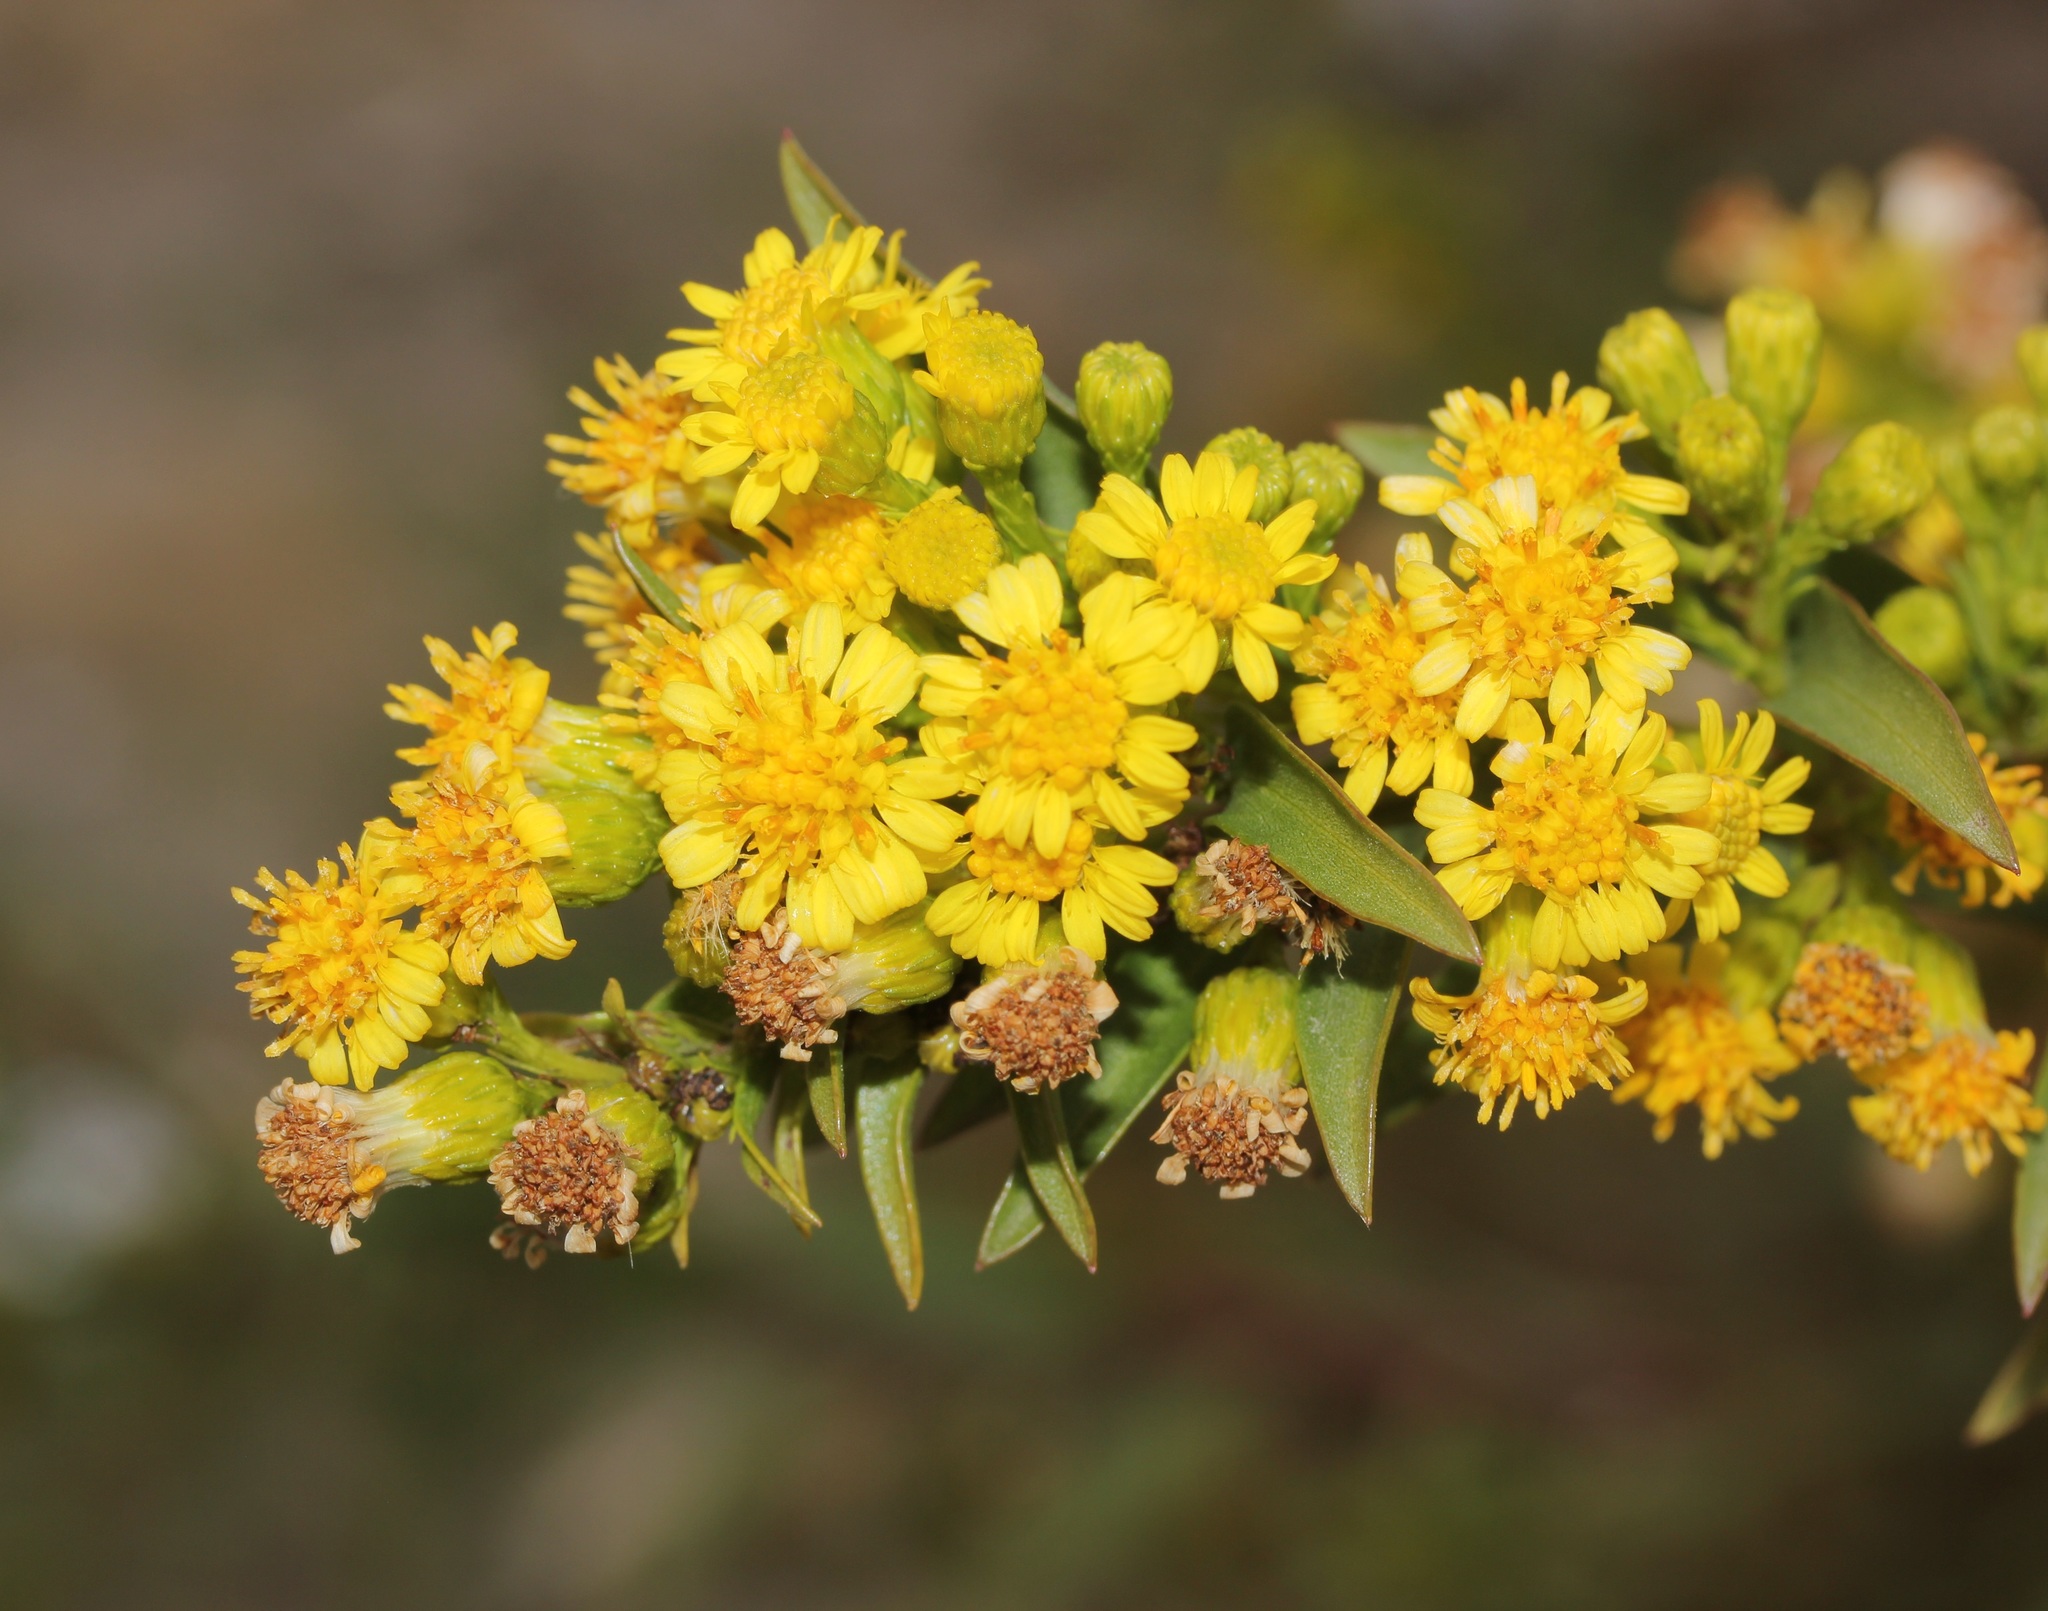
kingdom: Plantae
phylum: Tracheophyta
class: Magnoliopsida
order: Asterales
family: Asteraceae
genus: Solidago
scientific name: Solidago sempervirens
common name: Salt-marsh goldenrod
